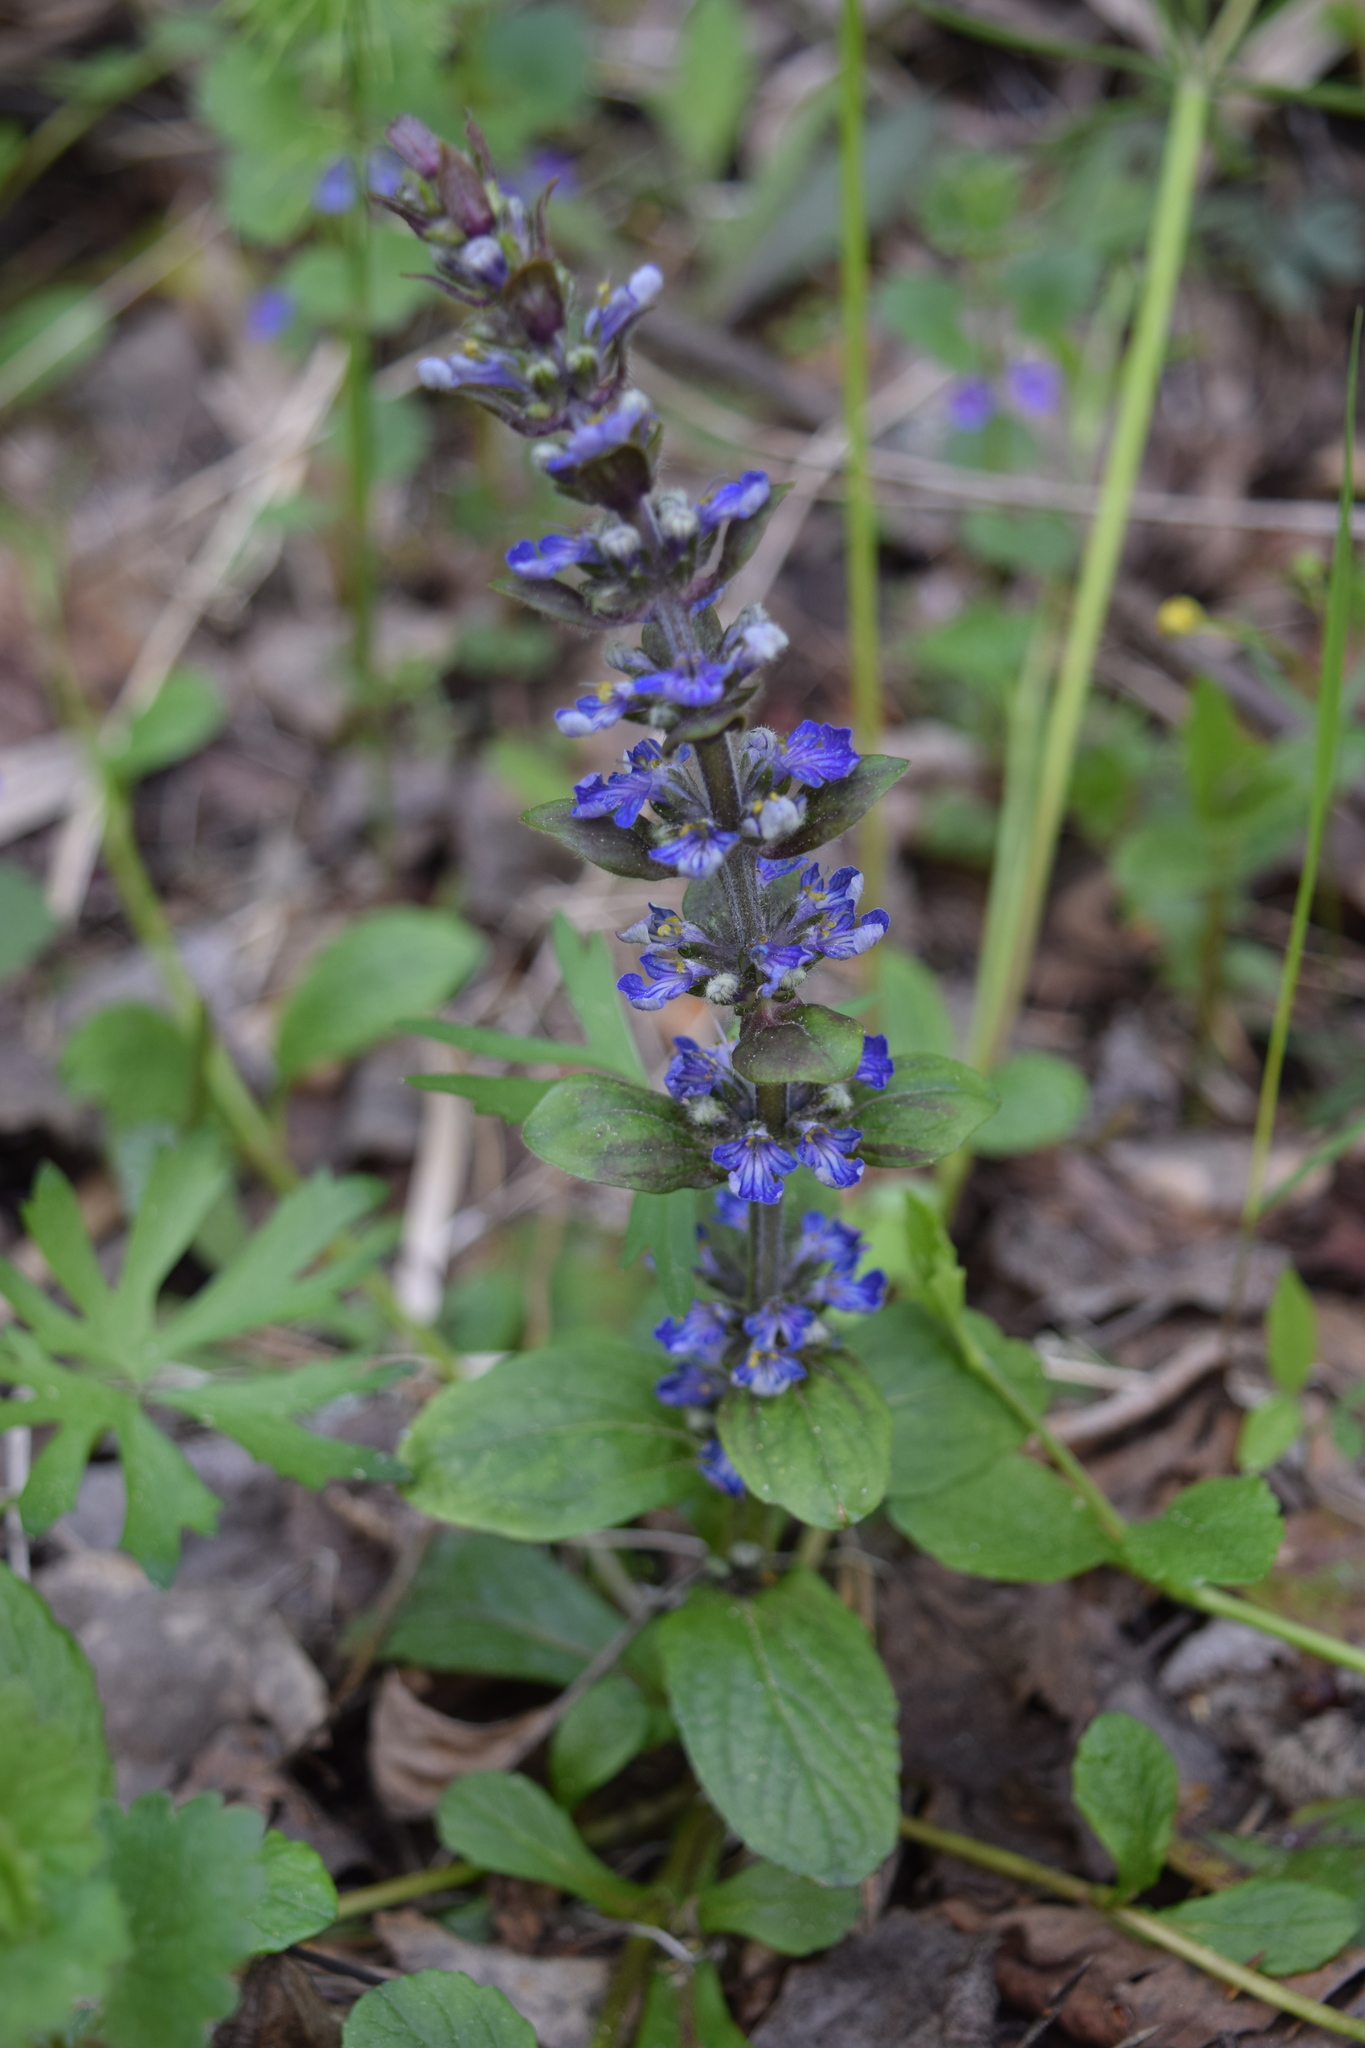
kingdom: Plantae
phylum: Tracheophyta
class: Magnoliopsida
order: Lamiales
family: Lamiaceae
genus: Ajuga
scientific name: Ajuga reptans
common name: Bugle
